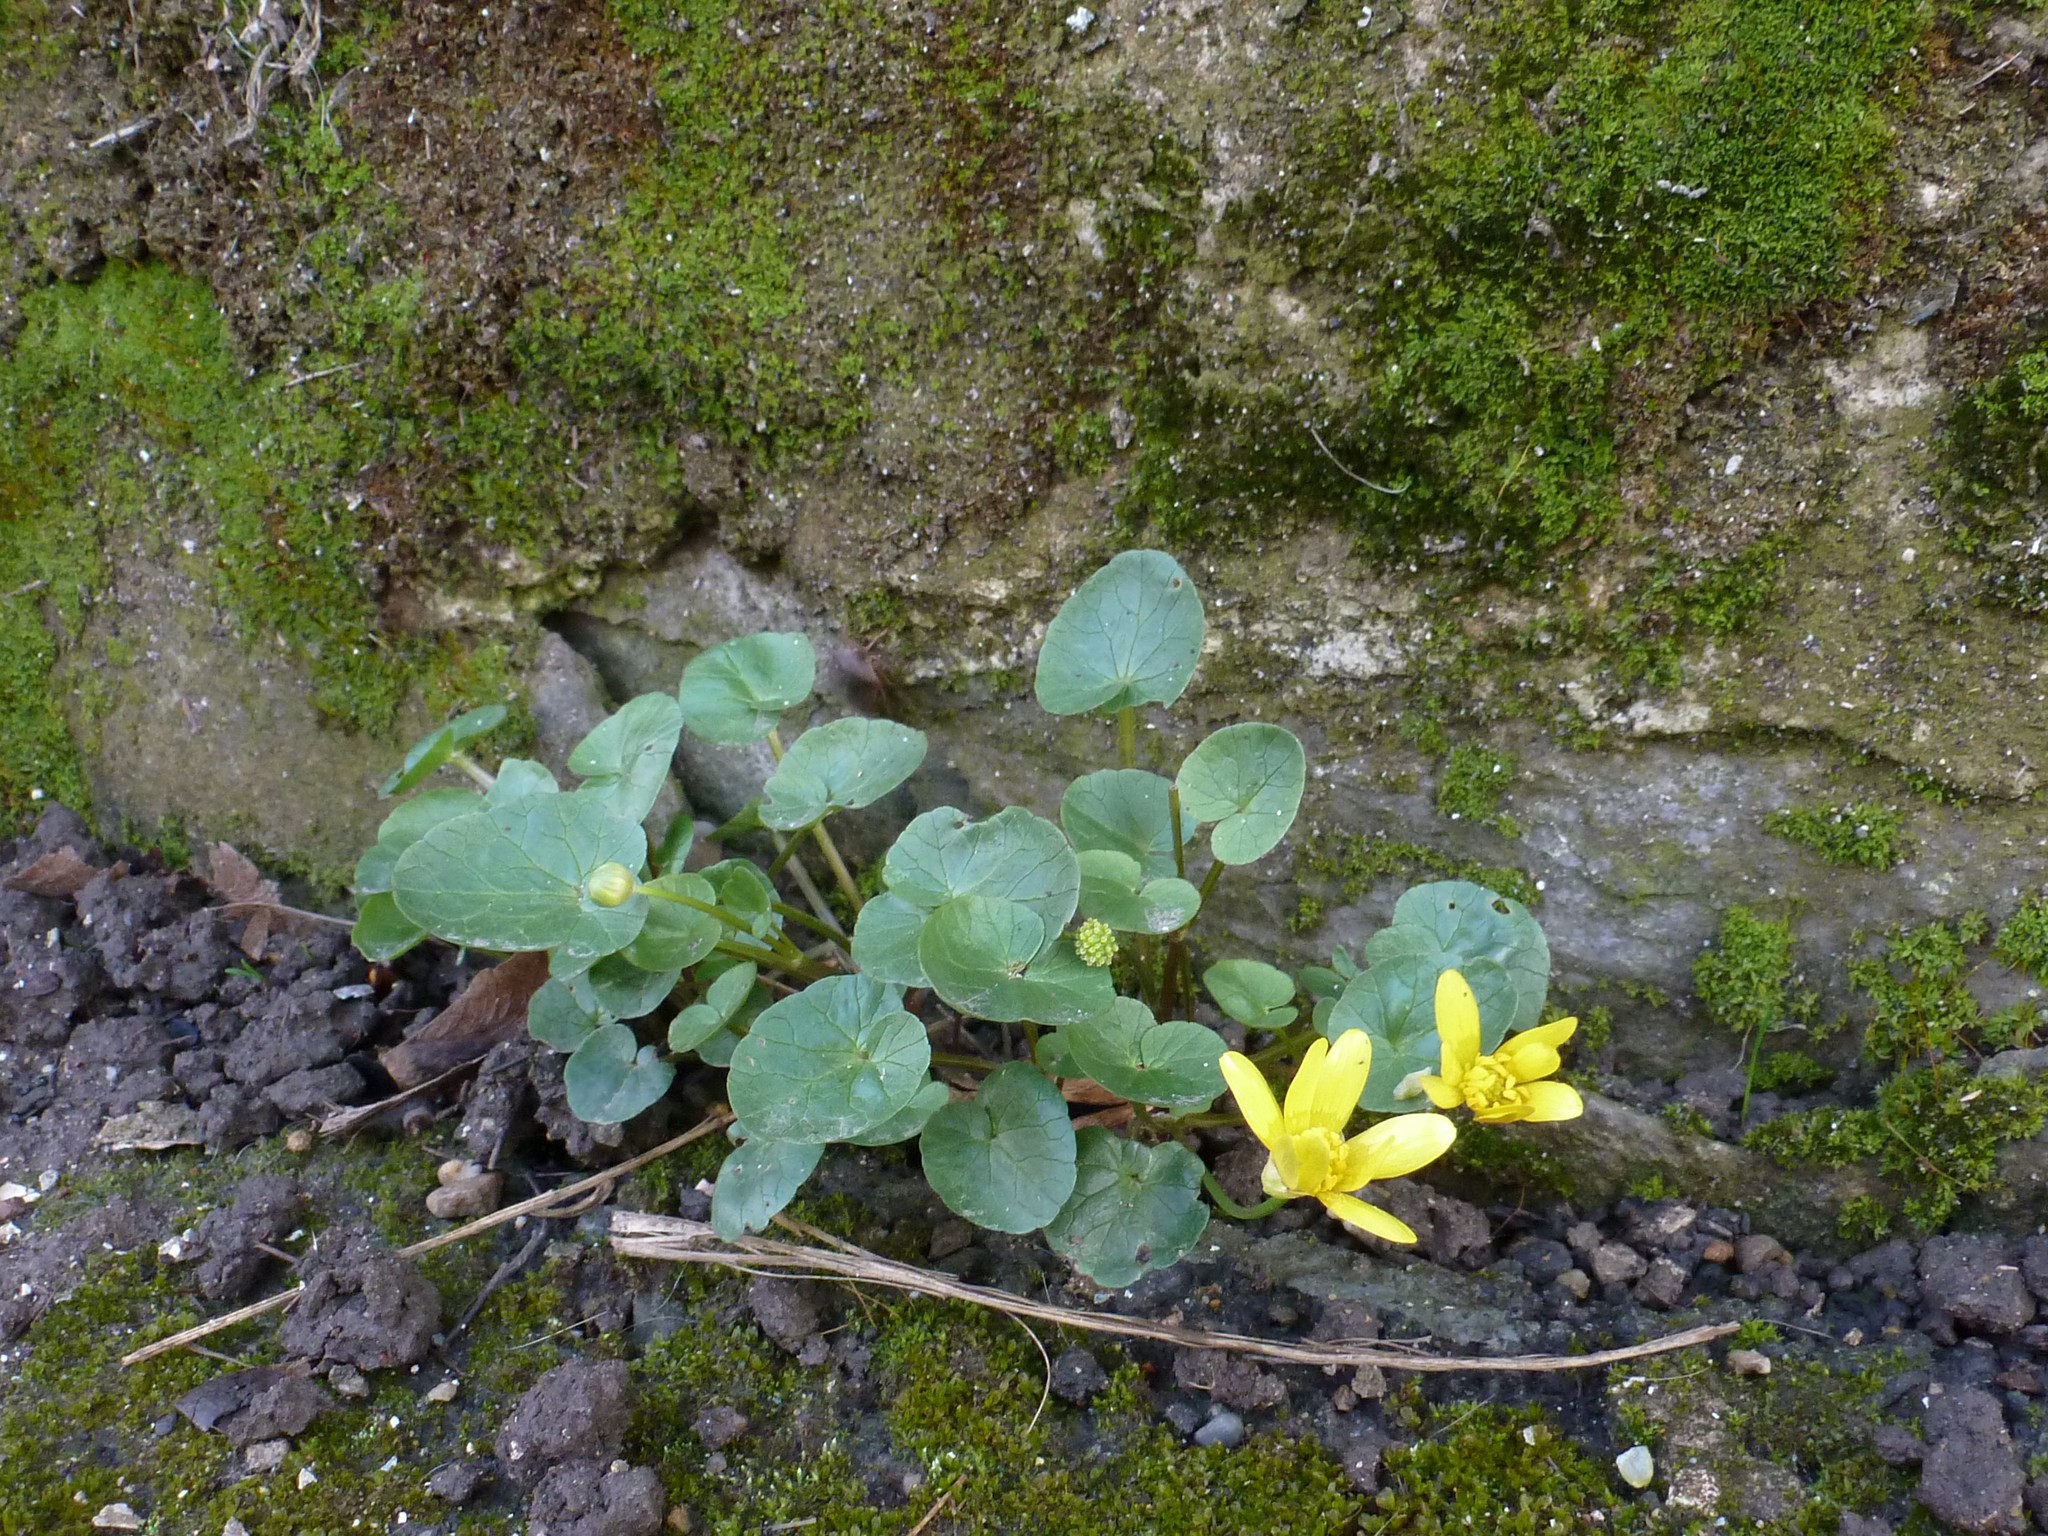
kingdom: Plantae
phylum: Tracheophyta
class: Magnoliopsida
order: Ranunculales
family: Ranunculaceae
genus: Ficaria
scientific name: Ficaria verna
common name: Lesser celandine
